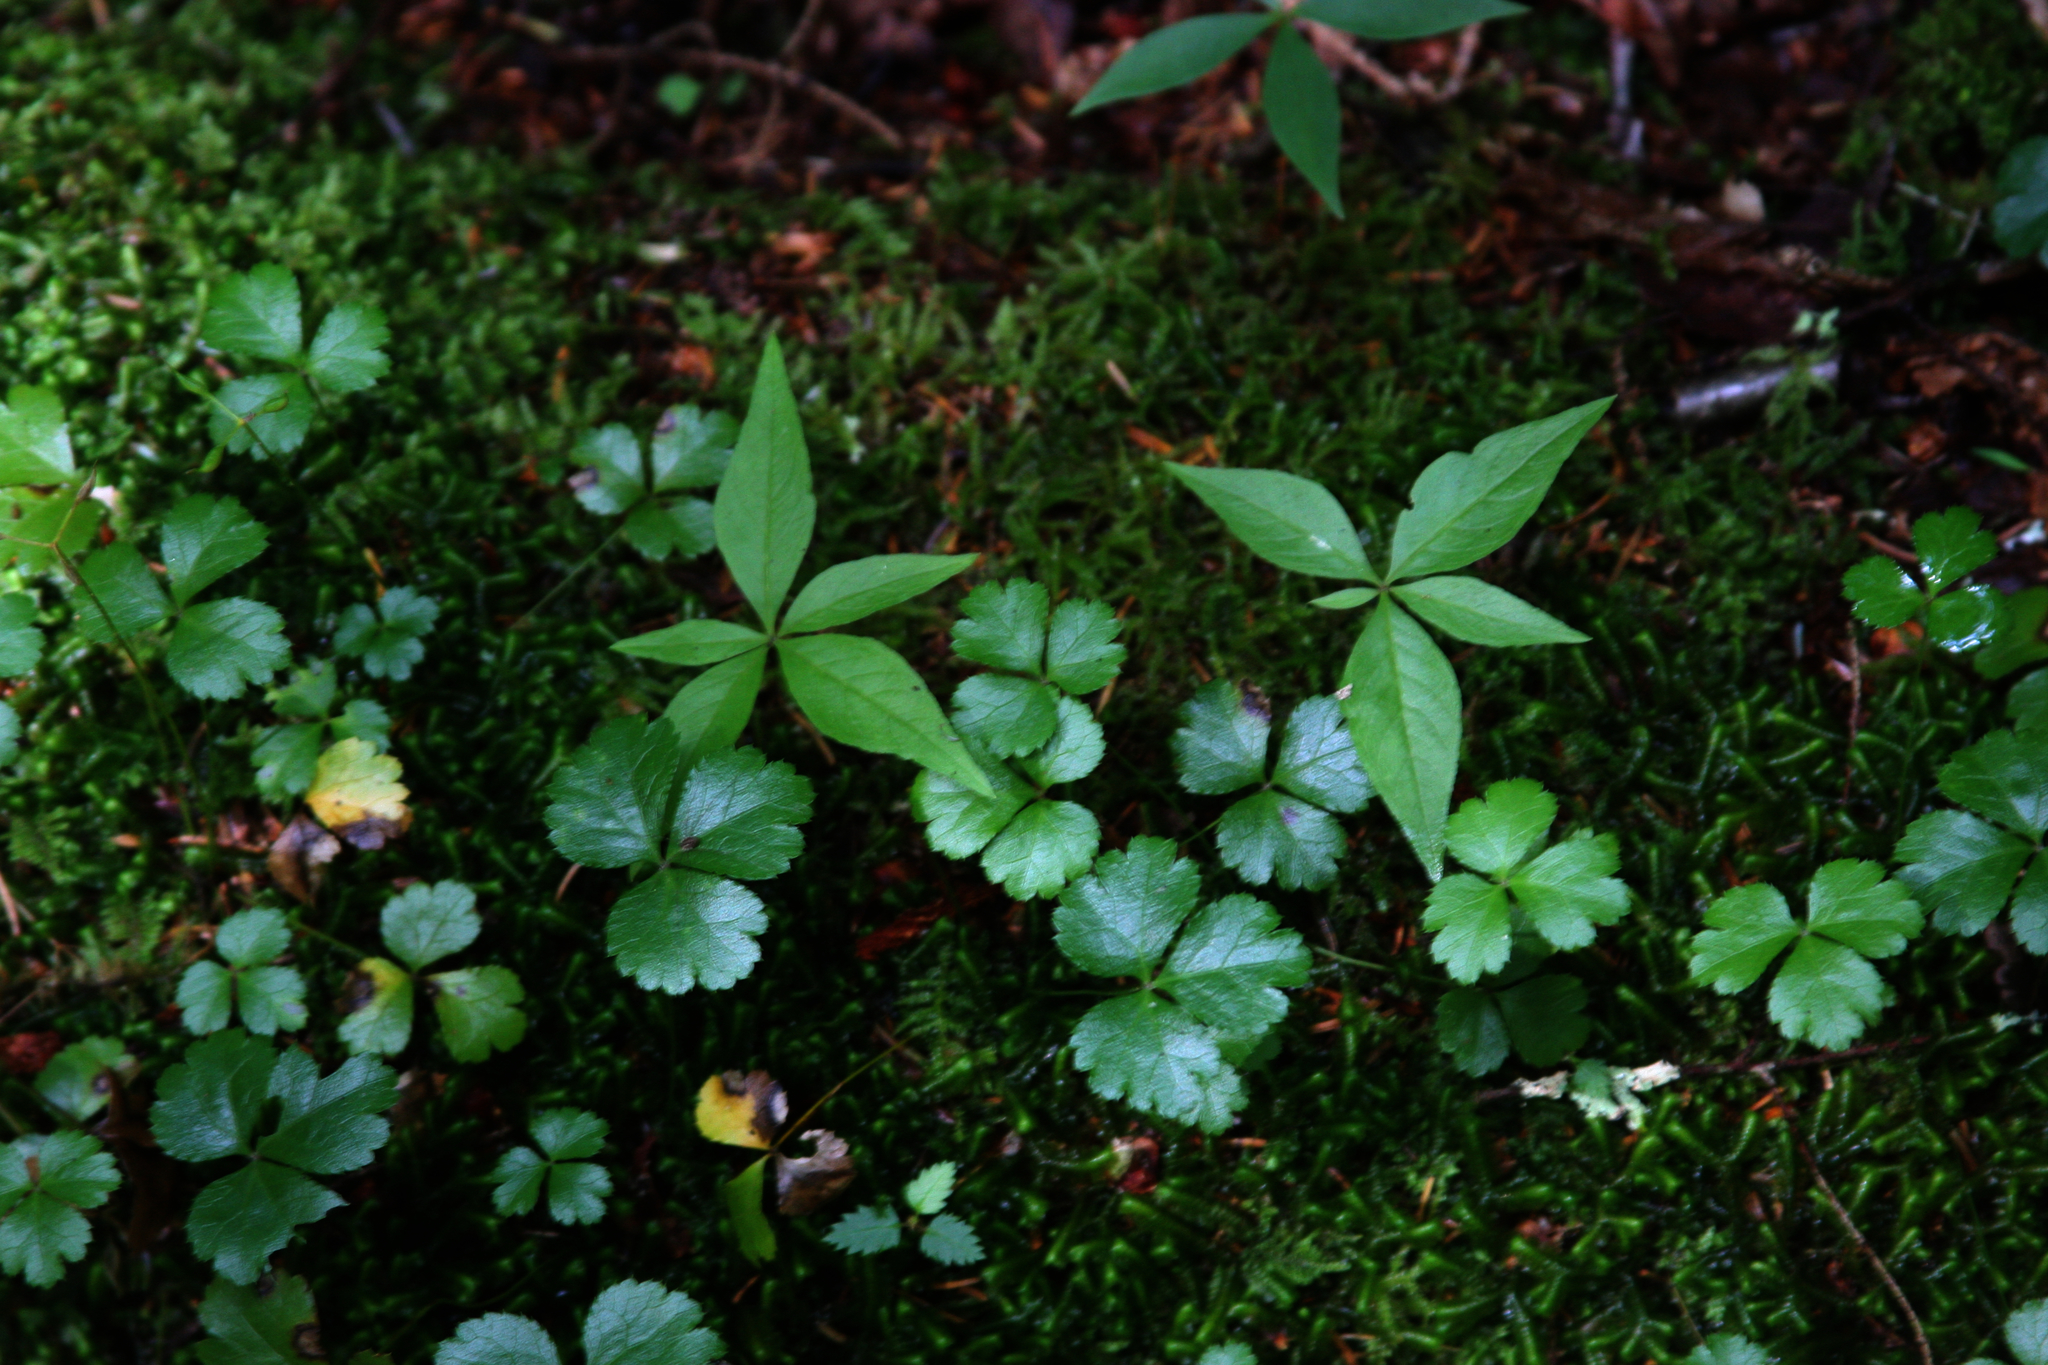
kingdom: Plantae
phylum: Tracheophyta
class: Magnoliopsida
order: Ericales
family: Primulaceae
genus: Lysimachia
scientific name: Lysimachia borealis
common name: American starflower
